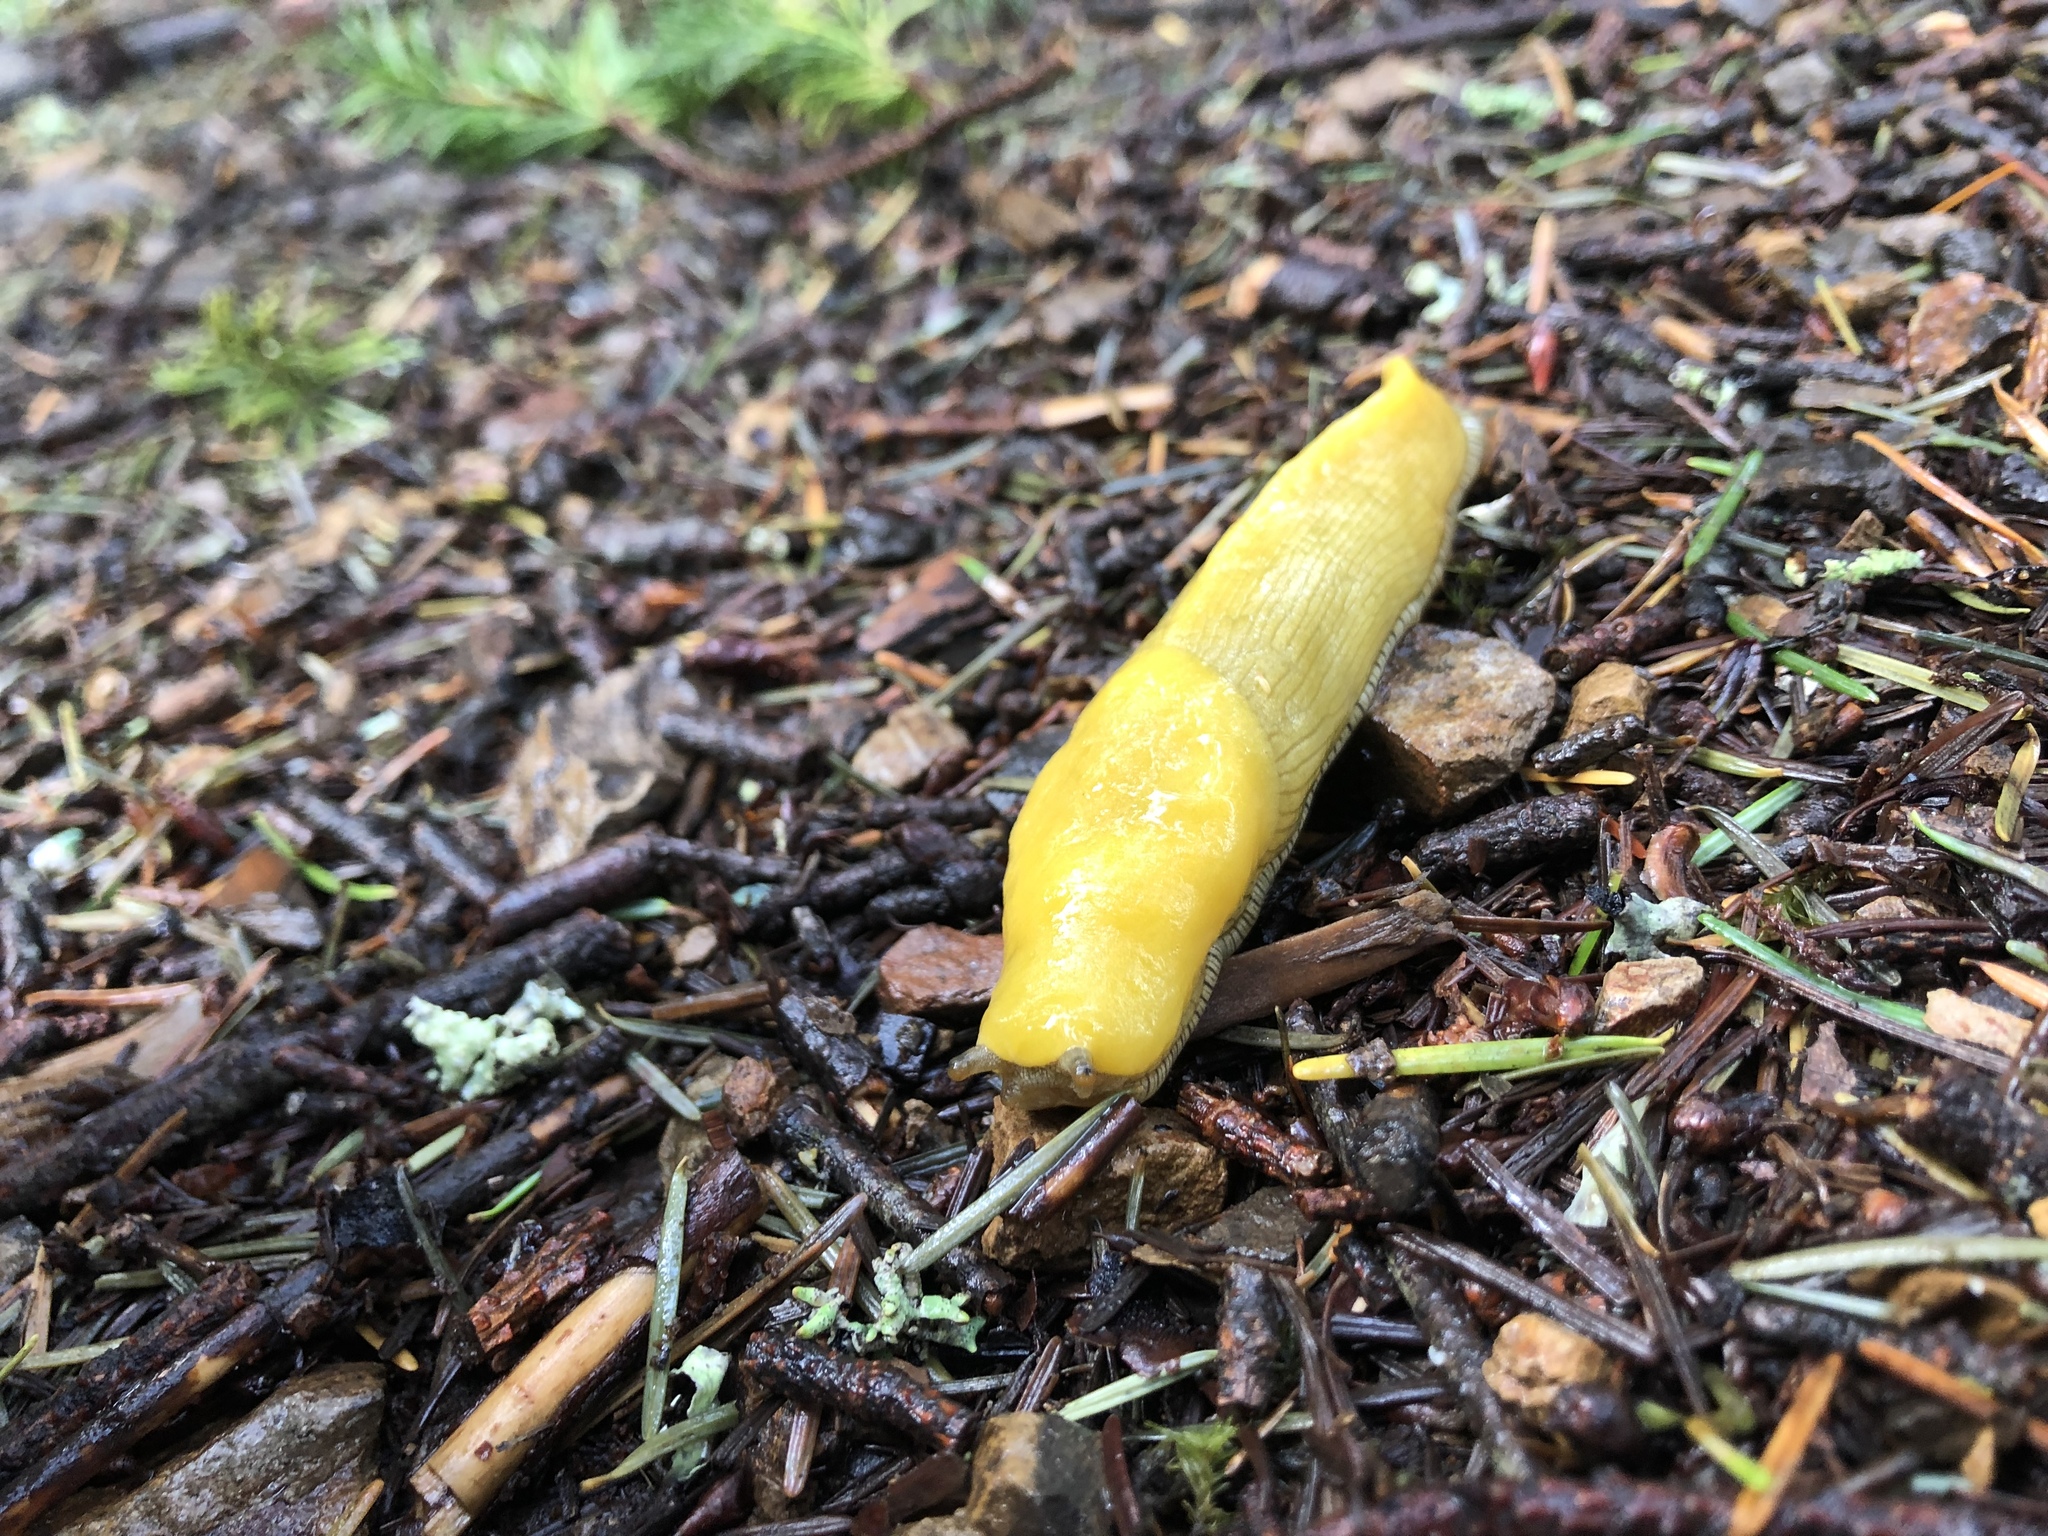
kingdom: Animalia
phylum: Mollusca
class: Gastropoda
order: Stylommatophora
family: Ariolimacidae
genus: Ariolimax
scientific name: Ariolimax californicus
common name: California banana slug
